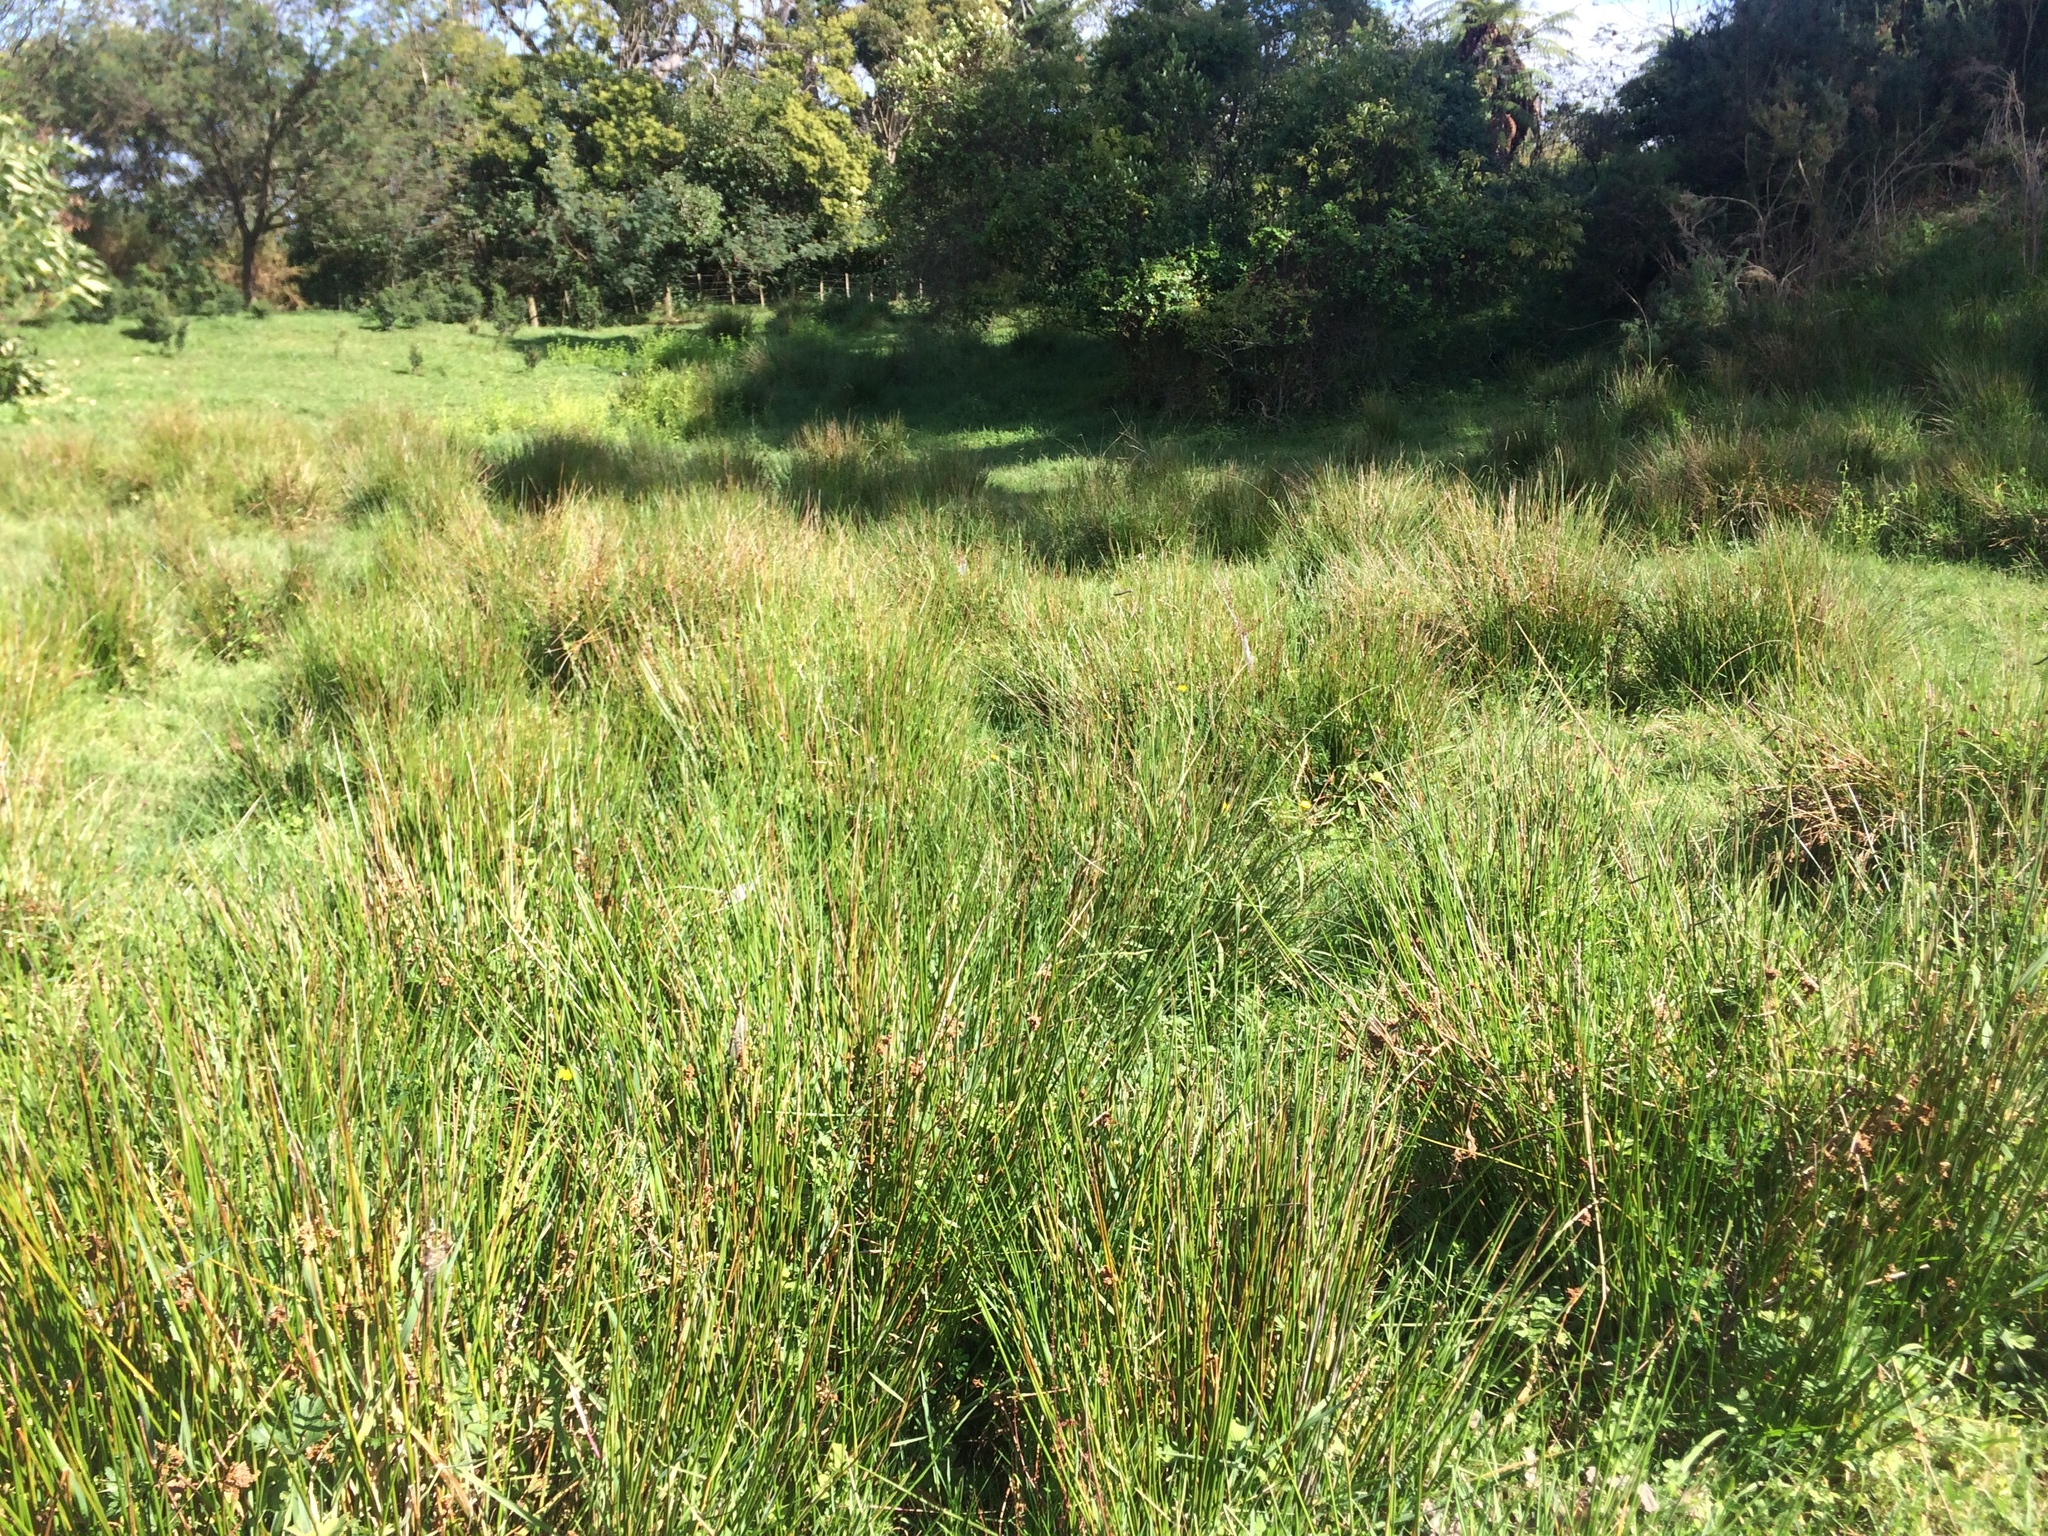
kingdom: Plantae
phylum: Tracheophyta
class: Liliopsida
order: Poales
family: Juncaceae
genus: Juncus
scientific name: Juncus effusus
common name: Soft rush
